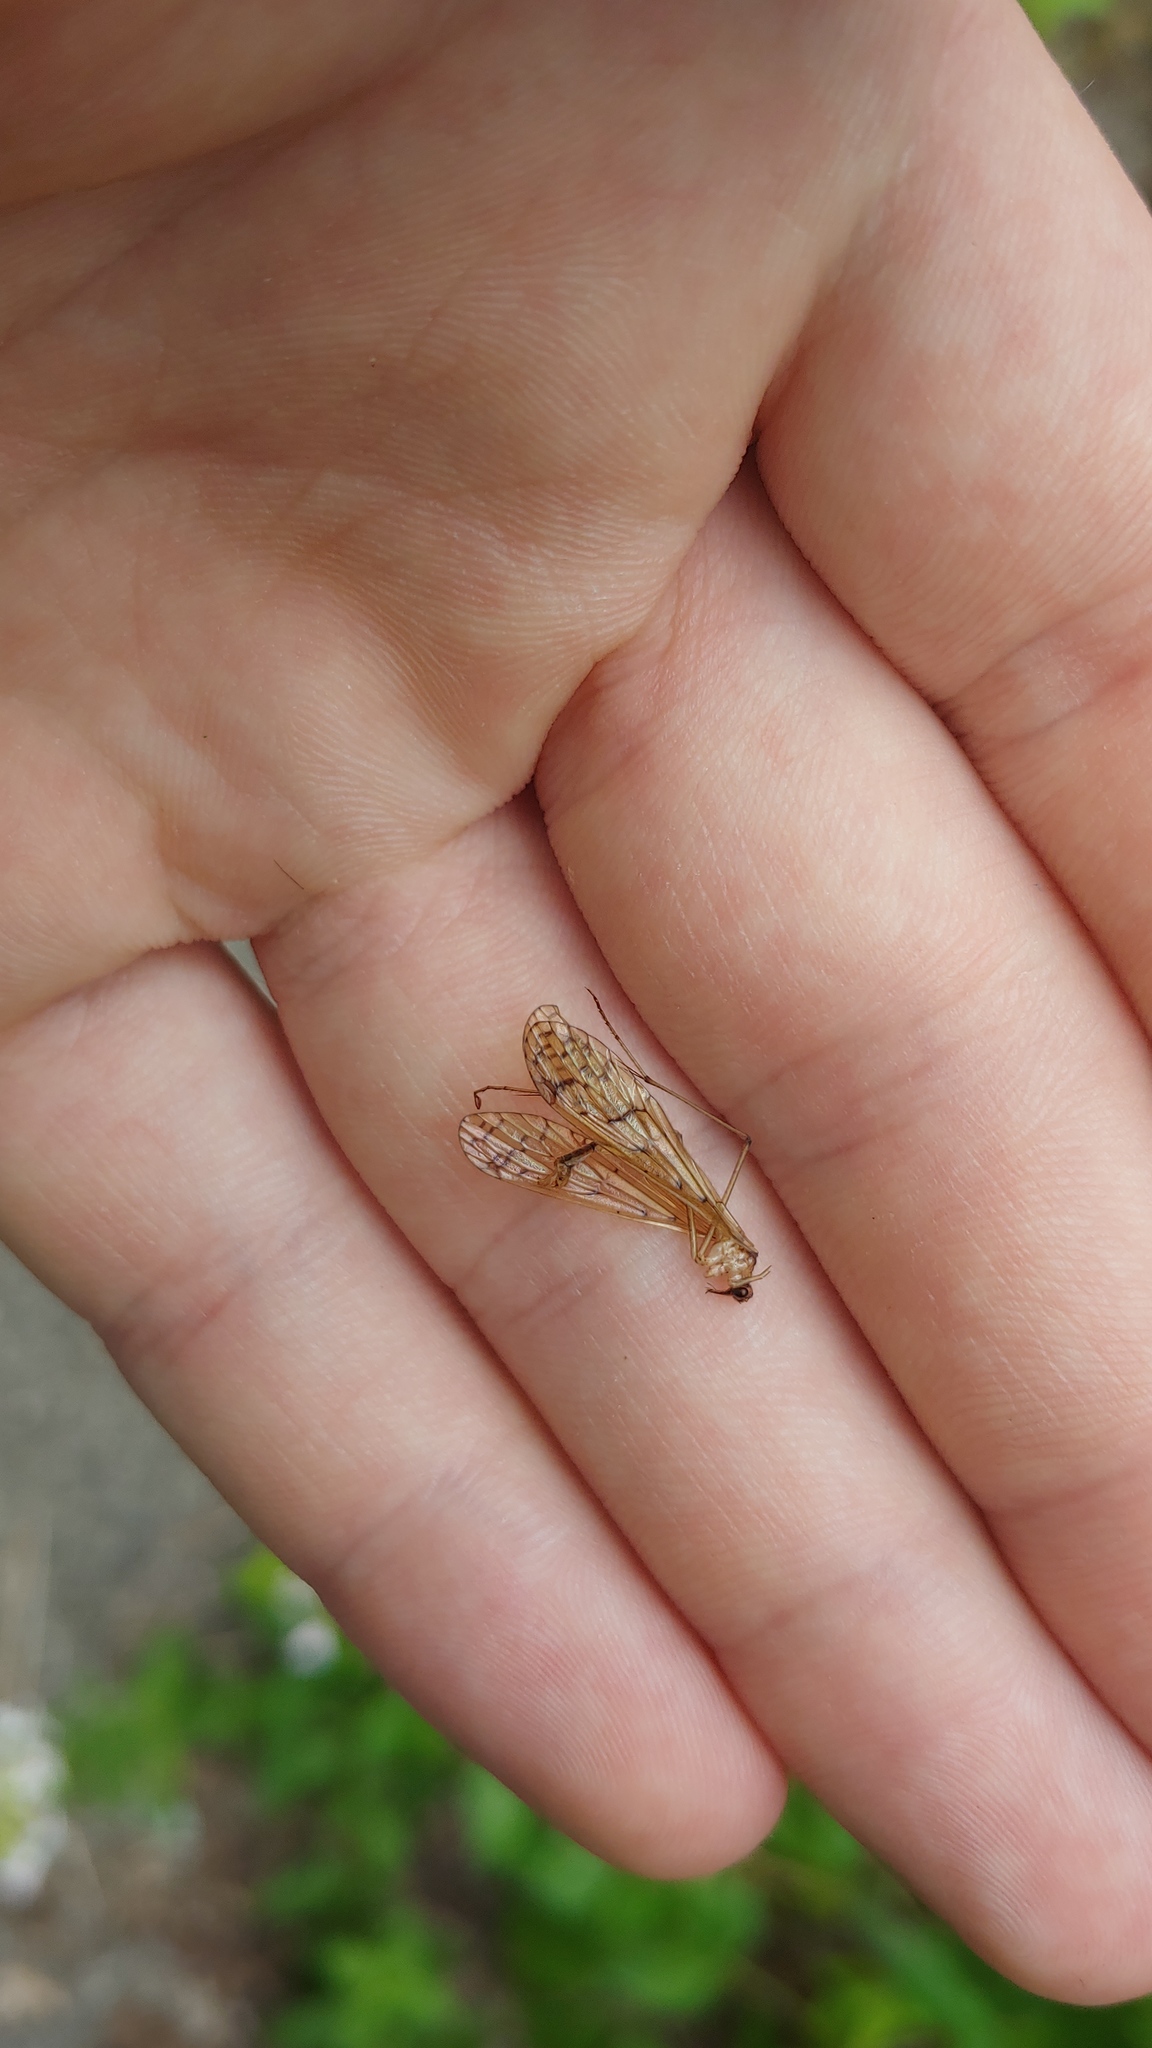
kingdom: Animalia
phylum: Arthropoda
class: Insecta
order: Mecoptera
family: Bittacidae
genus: Bittacus
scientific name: Bittacus strigosus
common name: Thin hangingfly
